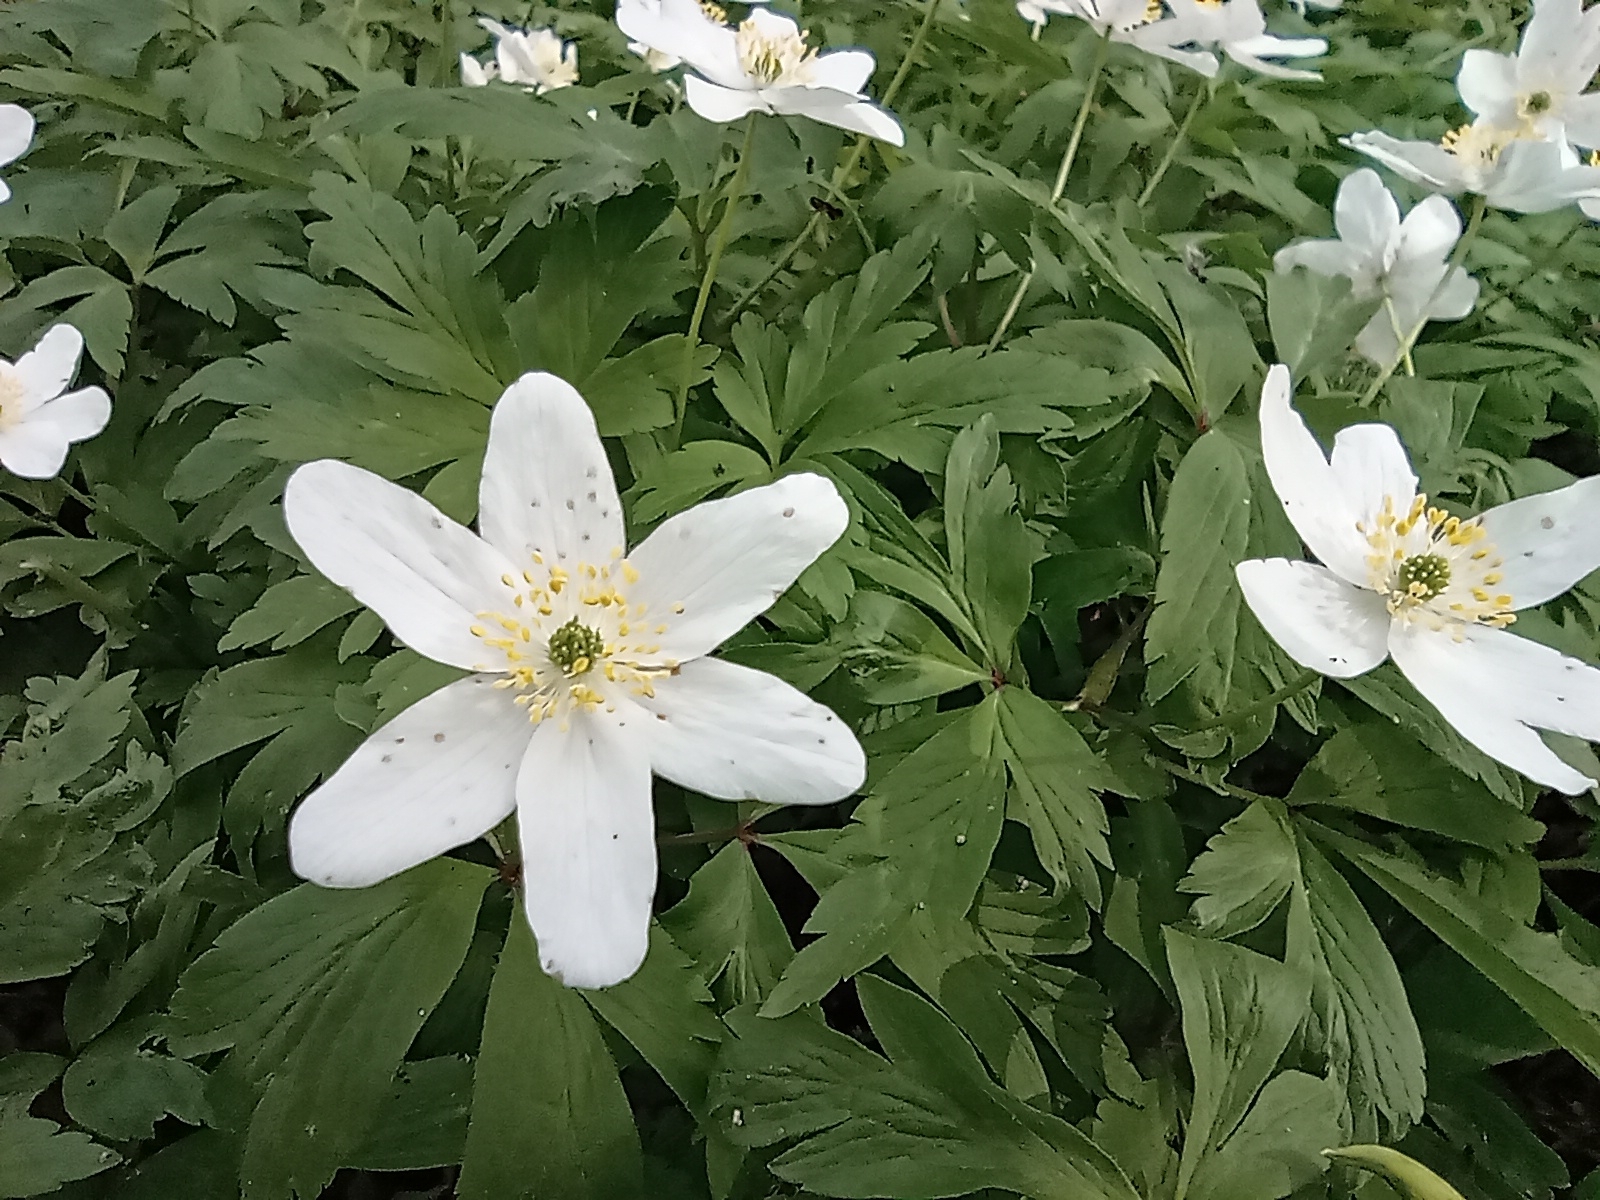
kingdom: Plantae
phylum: Tracheophyta
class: Magnoliopsida
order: Ranunculales
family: Ranunculaceae
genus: Anemone
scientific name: Anemone nemorosa
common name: Wood anemone
